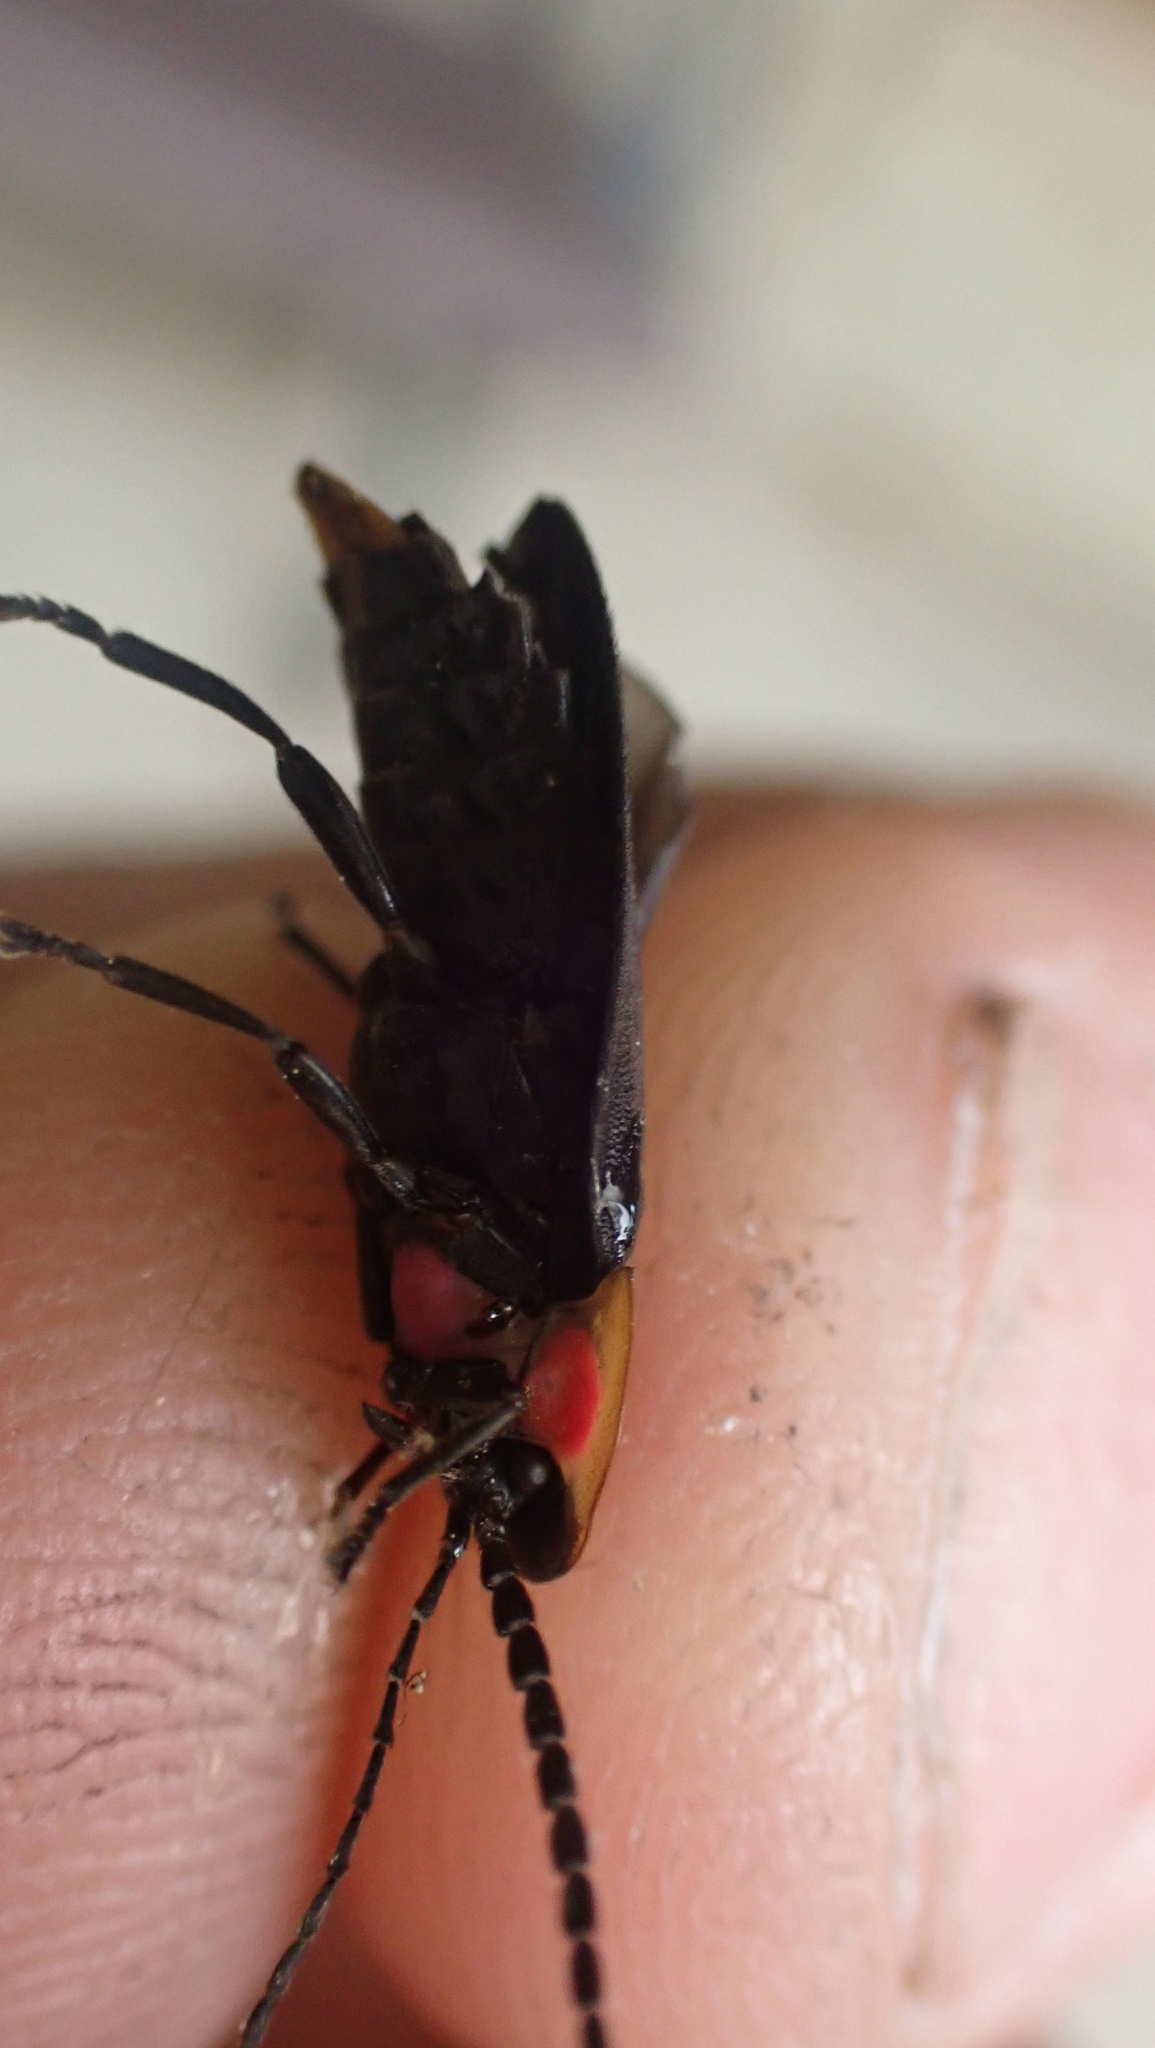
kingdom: Animalia
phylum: Arthropoda
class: Insecta
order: Coleoptera
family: Lampyridae
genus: Lucidota
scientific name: Lucidota atra
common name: Black firefly
